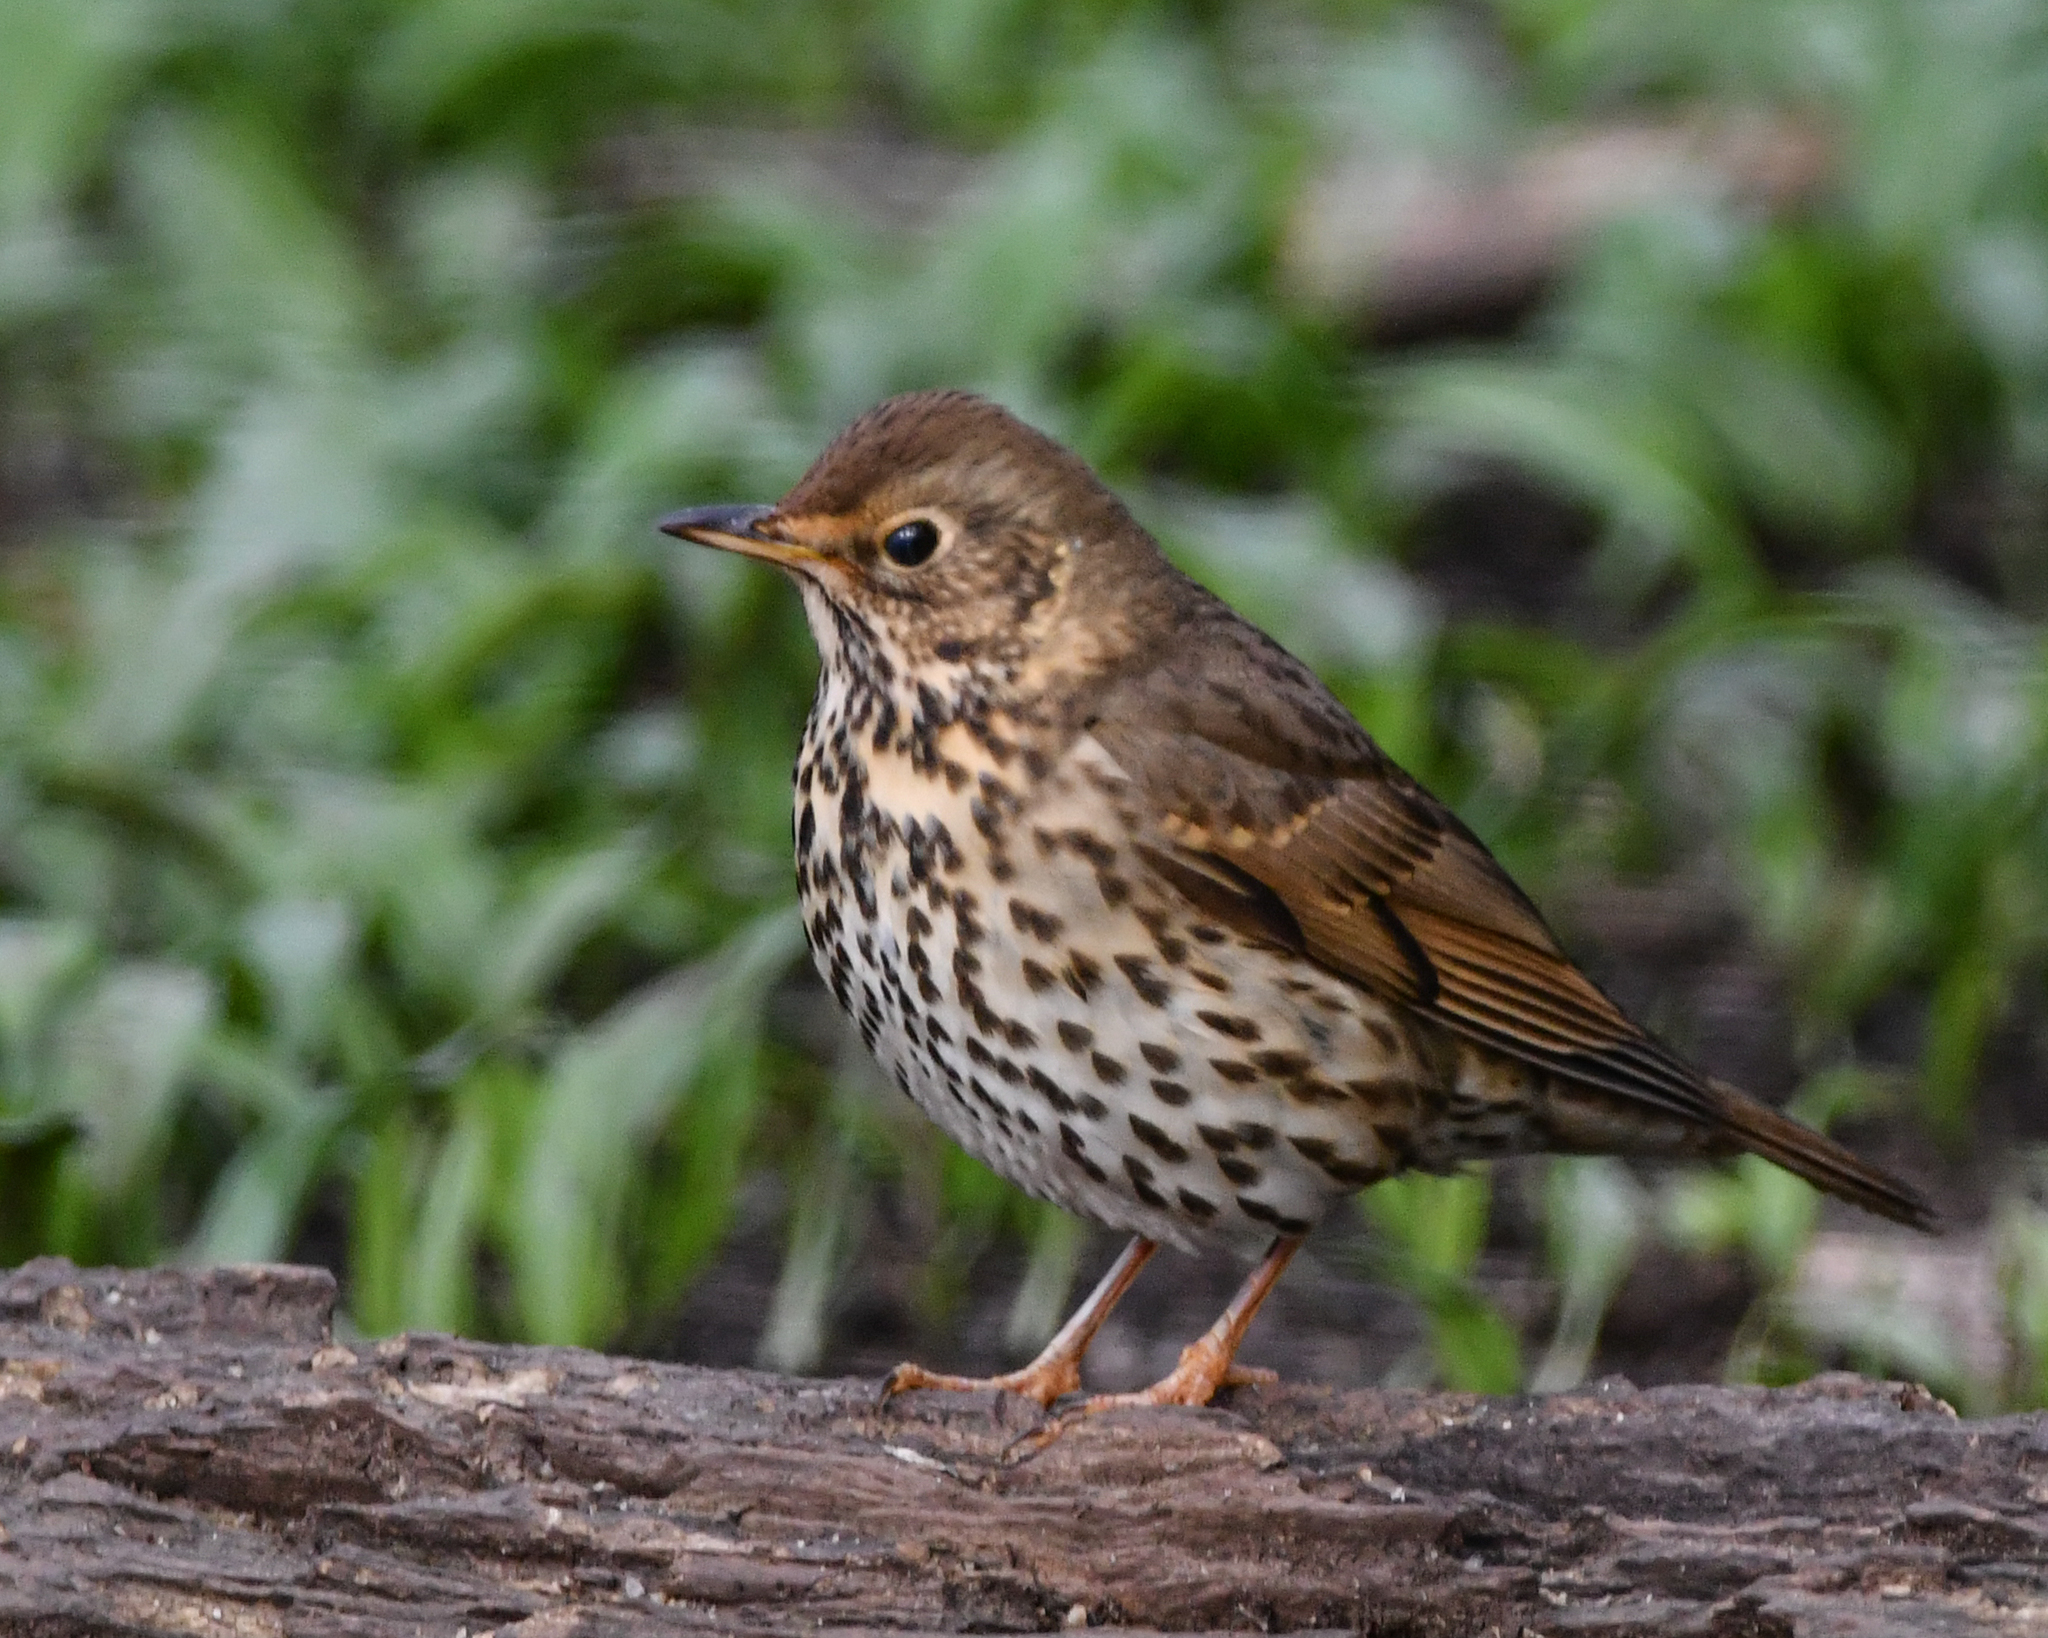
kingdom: Animalia
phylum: Chordata
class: Aves
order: Passeriformes
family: Turdidae
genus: Turdus
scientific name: Turdus philomelos
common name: Song thrush
